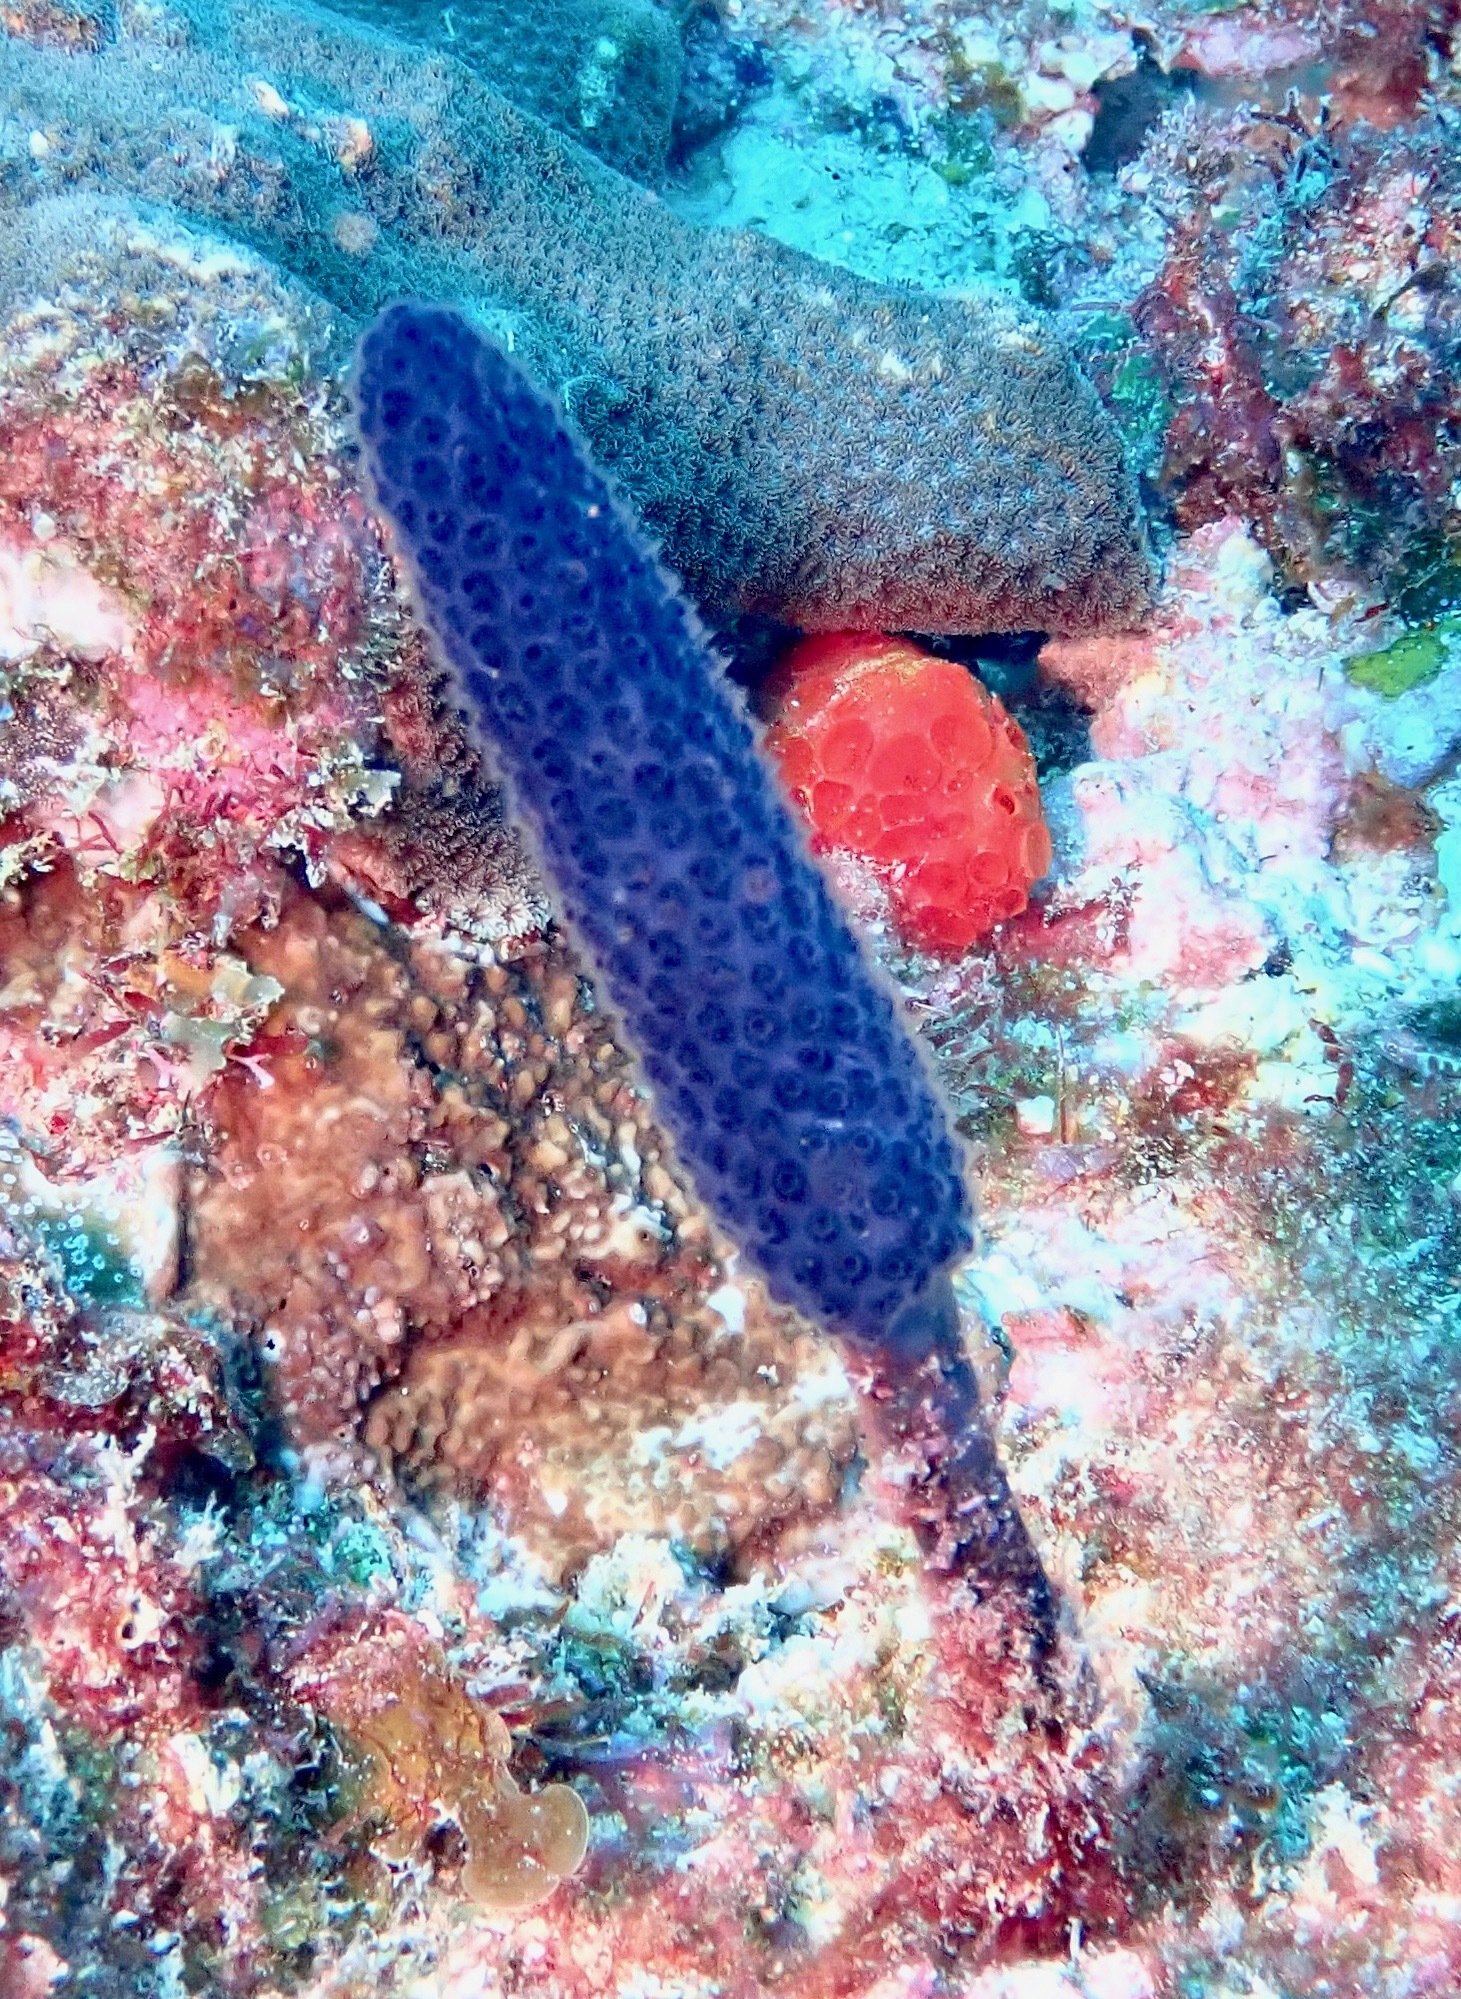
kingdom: Animalia
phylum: Chordata
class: Ascidiacea
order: Aplousobranchia
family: Holozoidae
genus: Sigillina
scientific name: Sigillina cyanea
